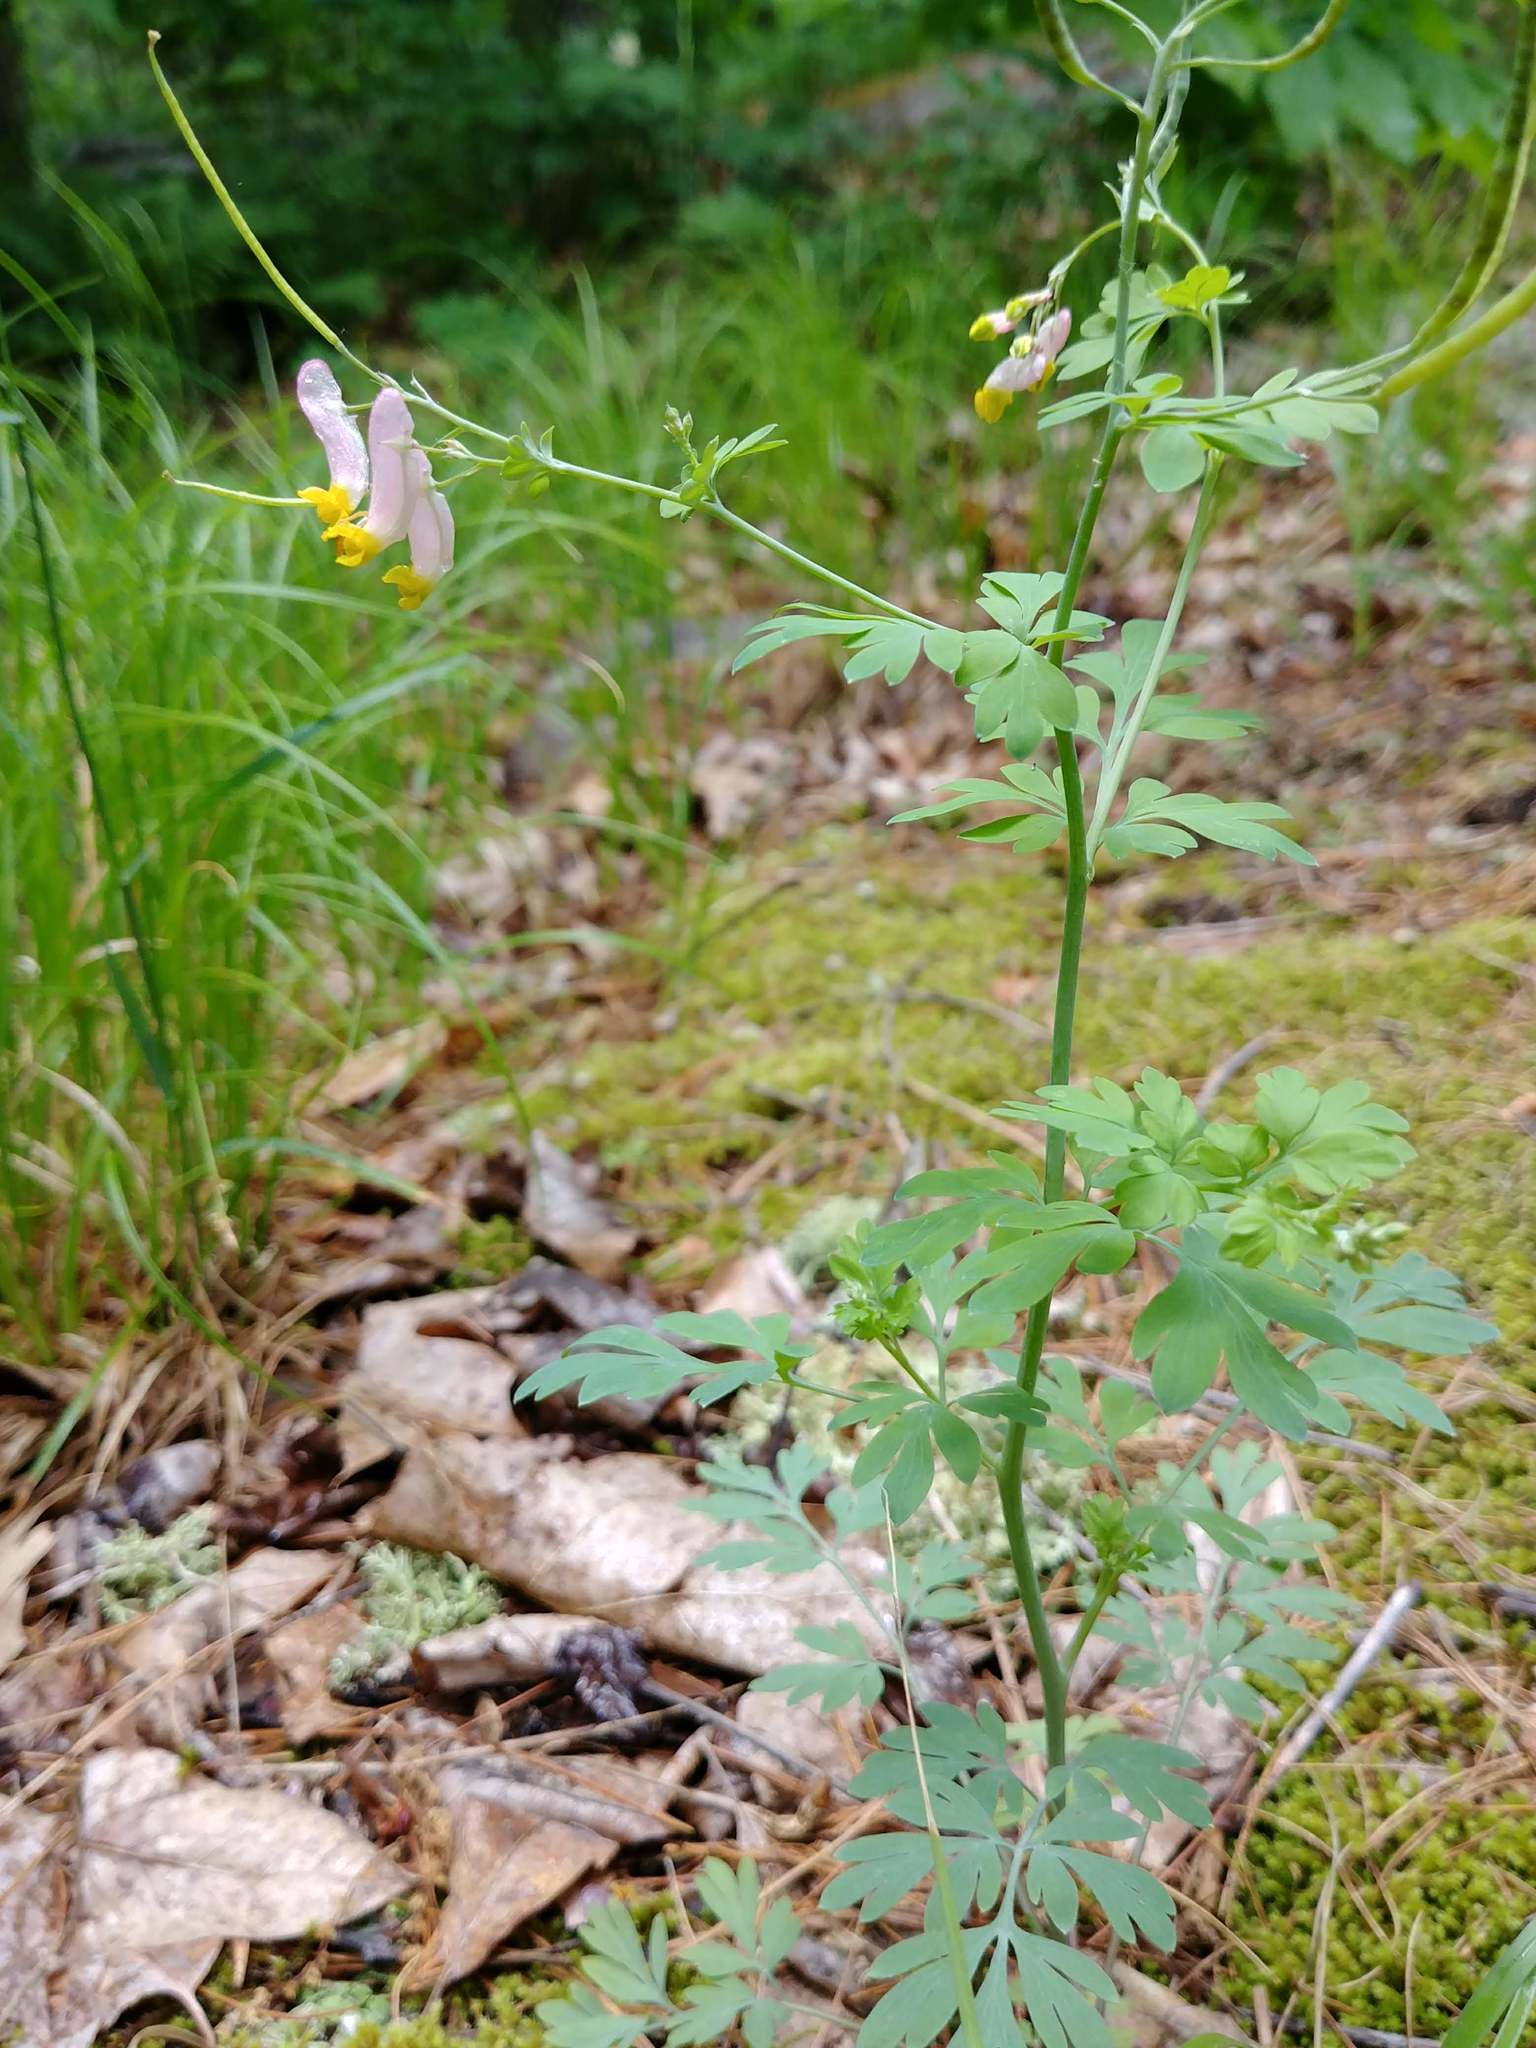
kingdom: Plantae
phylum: Tracheophyta
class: Magnoliopsida
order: Ranunculales
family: Papaveraceae
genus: Capnoides
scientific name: Capnoides sempervirens
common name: Rock harlequin
